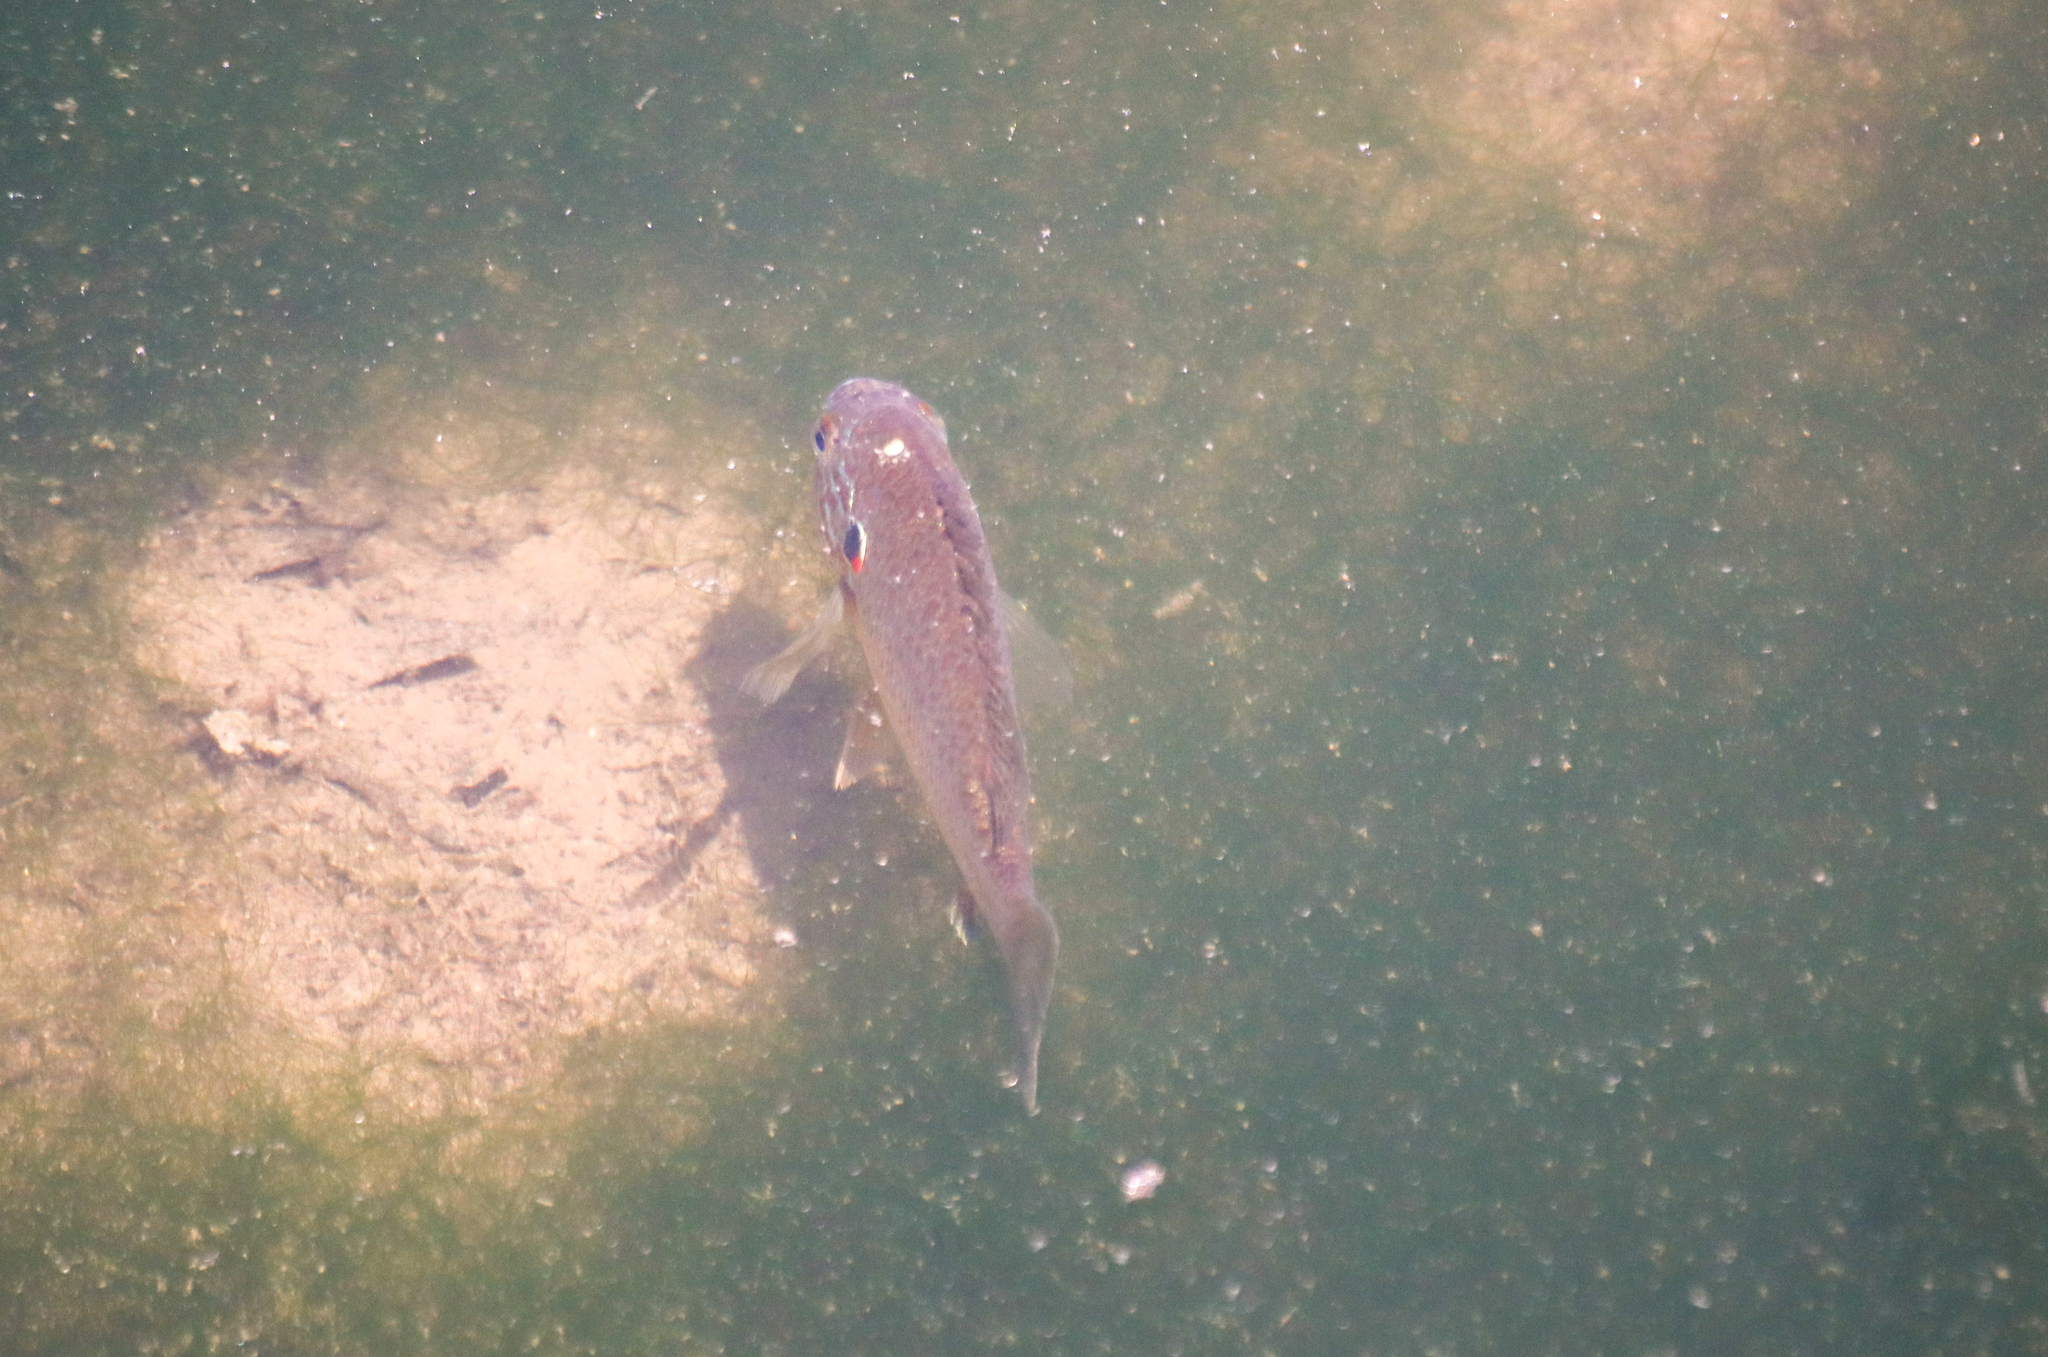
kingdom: Animalia
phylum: Chordata
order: Perciformes
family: Centrarchidae
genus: Lepomis
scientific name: Lepomis gibbosus
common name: Pumpkinseed
